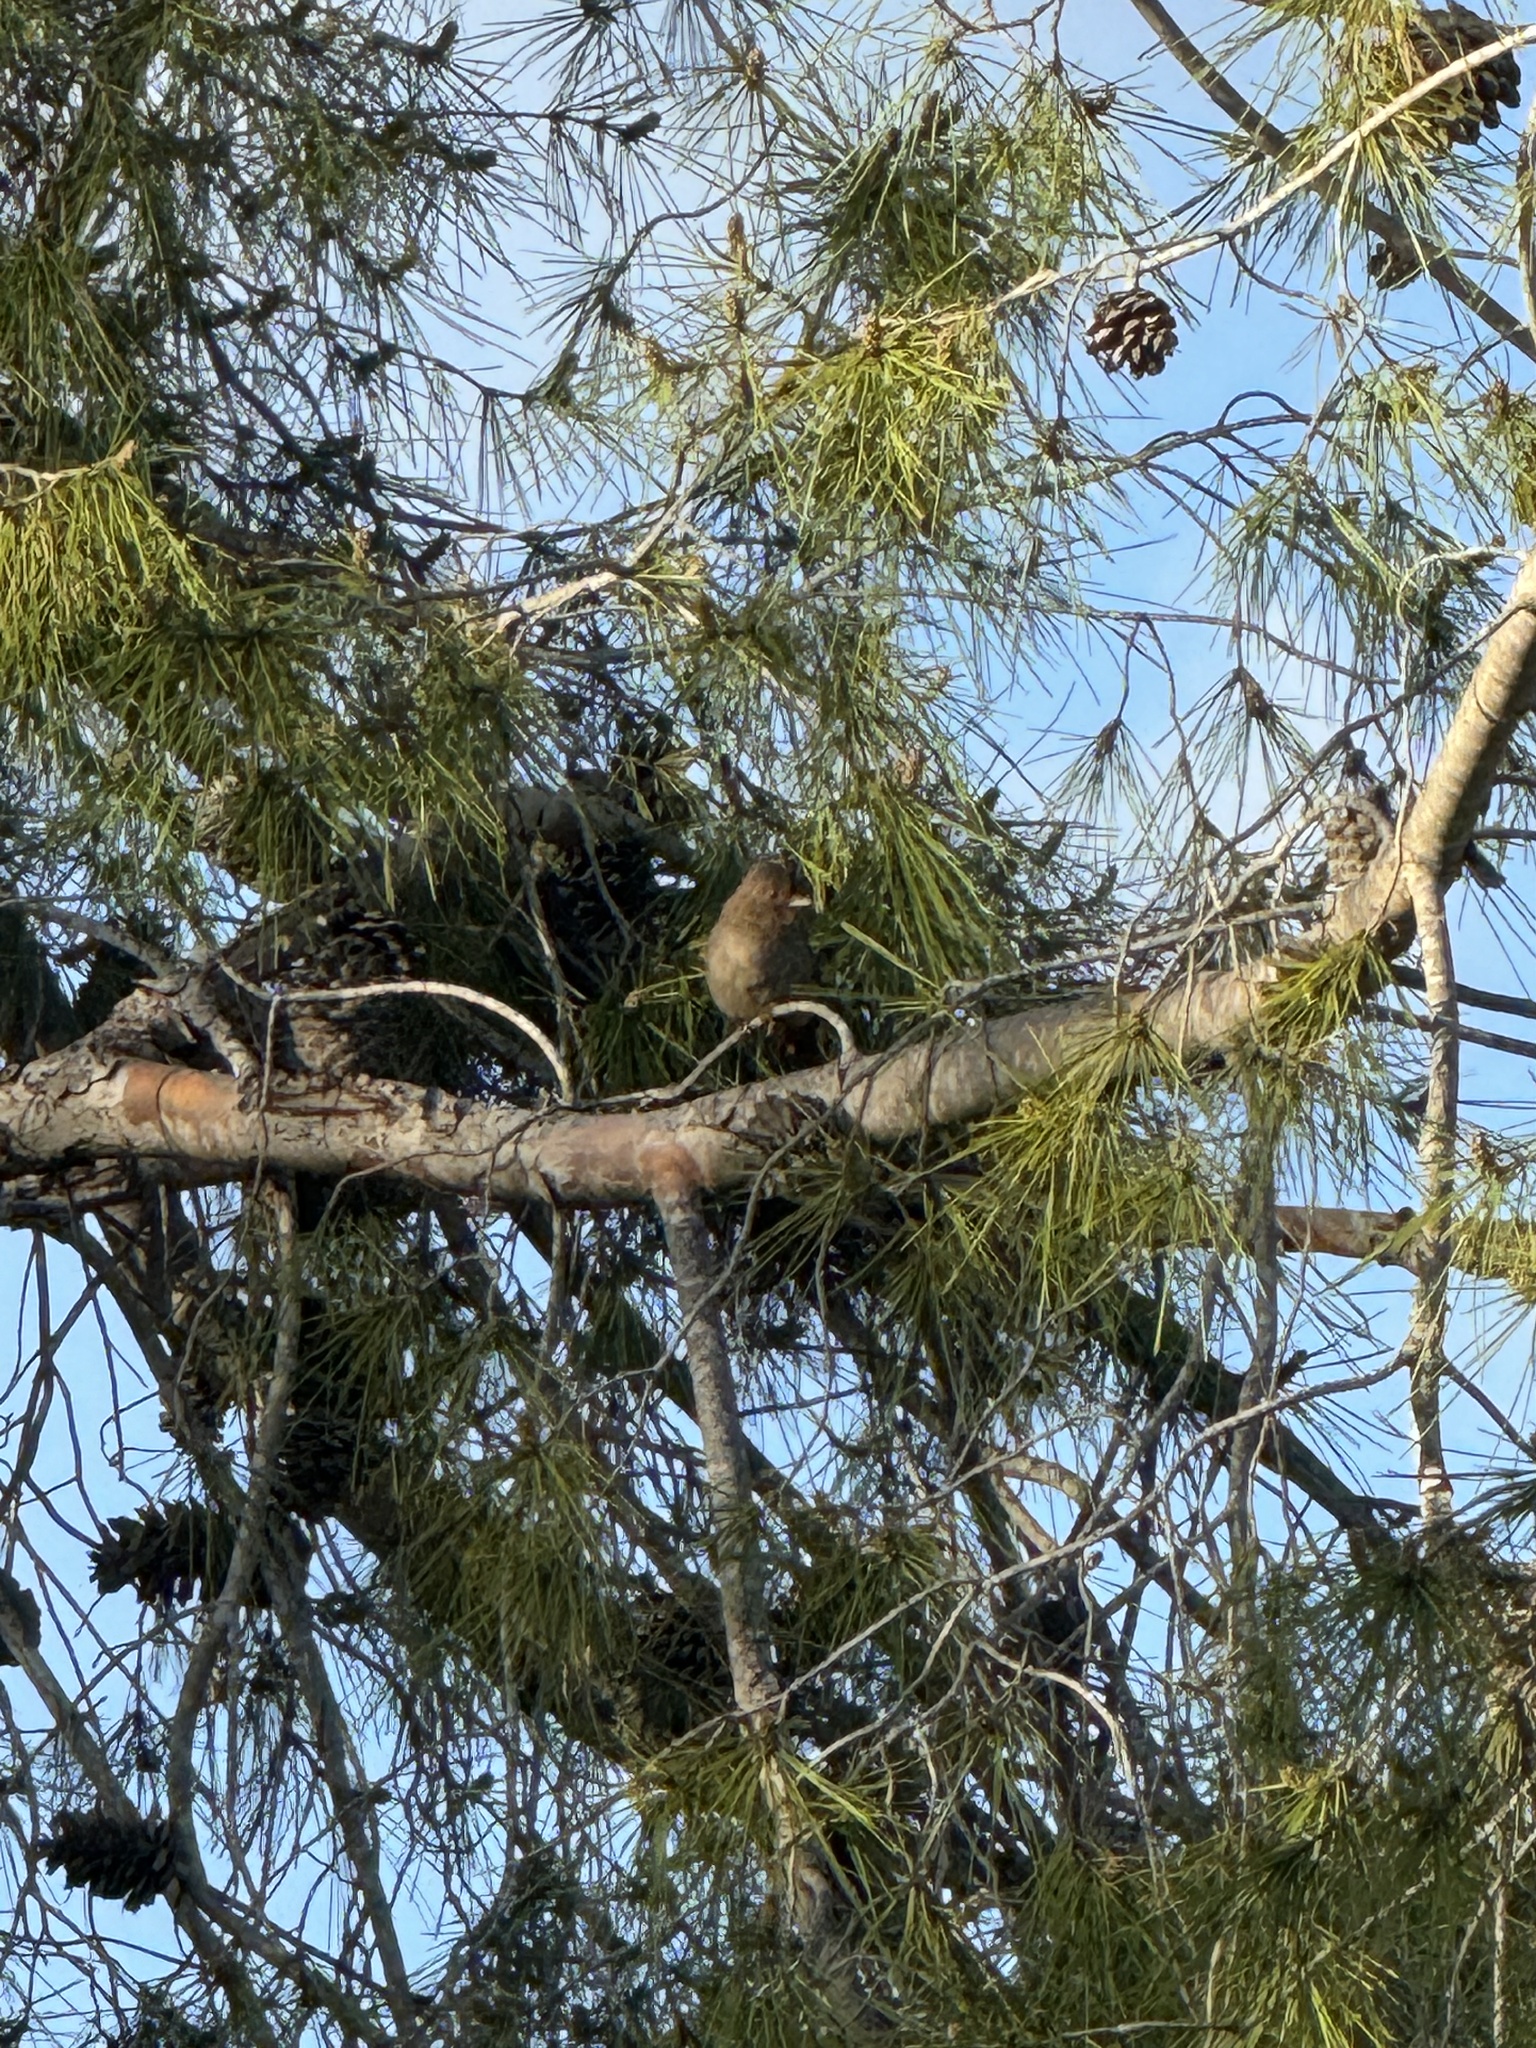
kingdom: Animalia
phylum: Chordata
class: Aves
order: Passeriformes
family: Passerellidae
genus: Melozone
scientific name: Melozone crissalis
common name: California towhee
